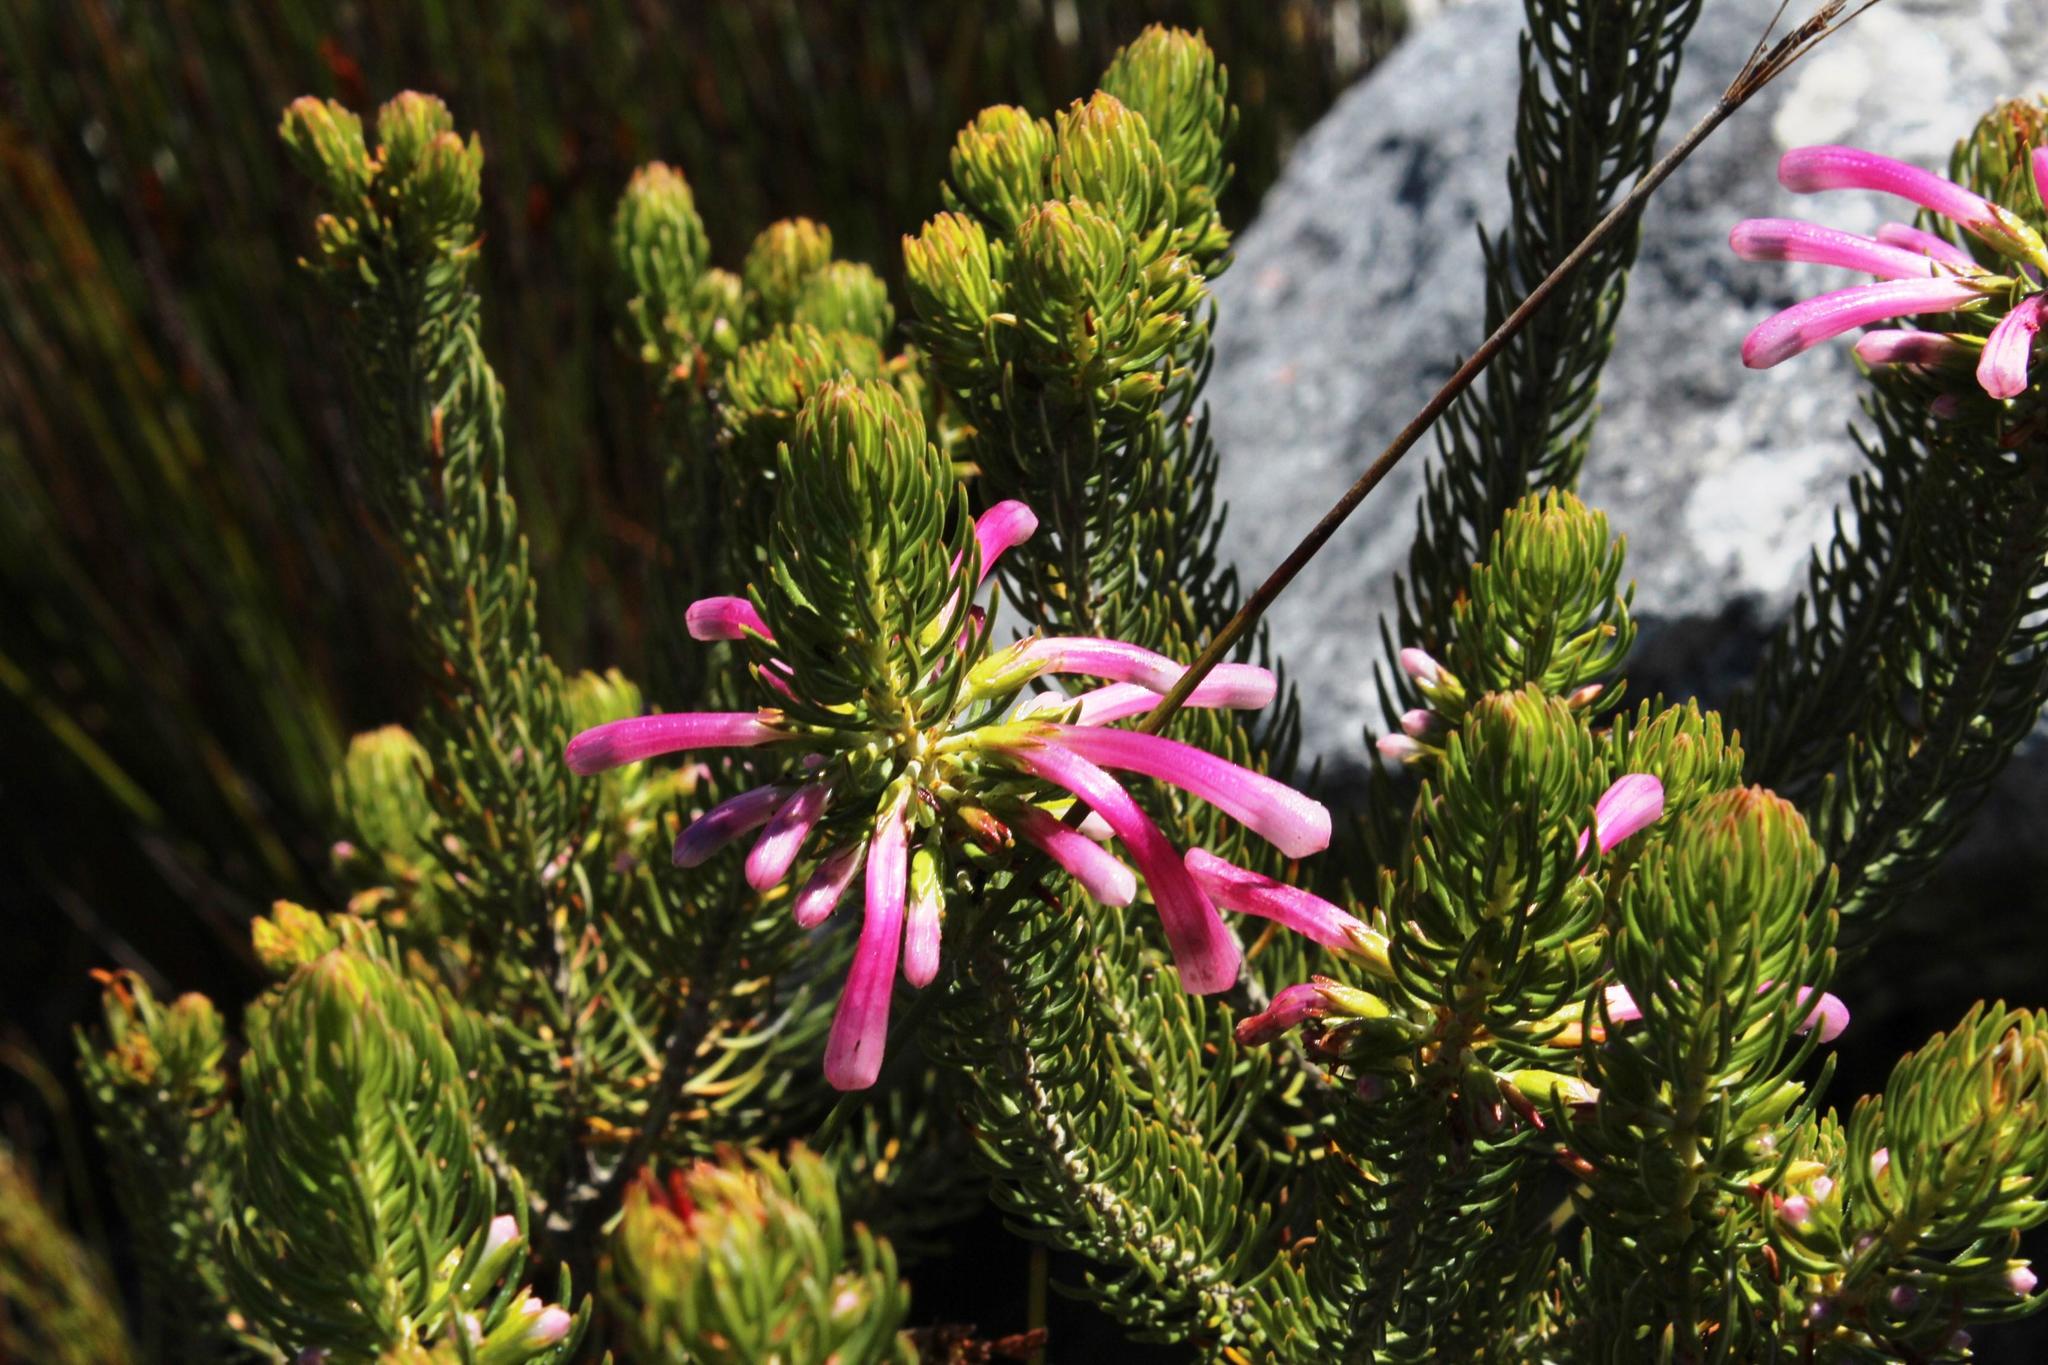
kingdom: Plantae
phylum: Tracheophyta
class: Magnoliopsida
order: Ericales
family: Ericaceae
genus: Erica
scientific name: Erica thomae
